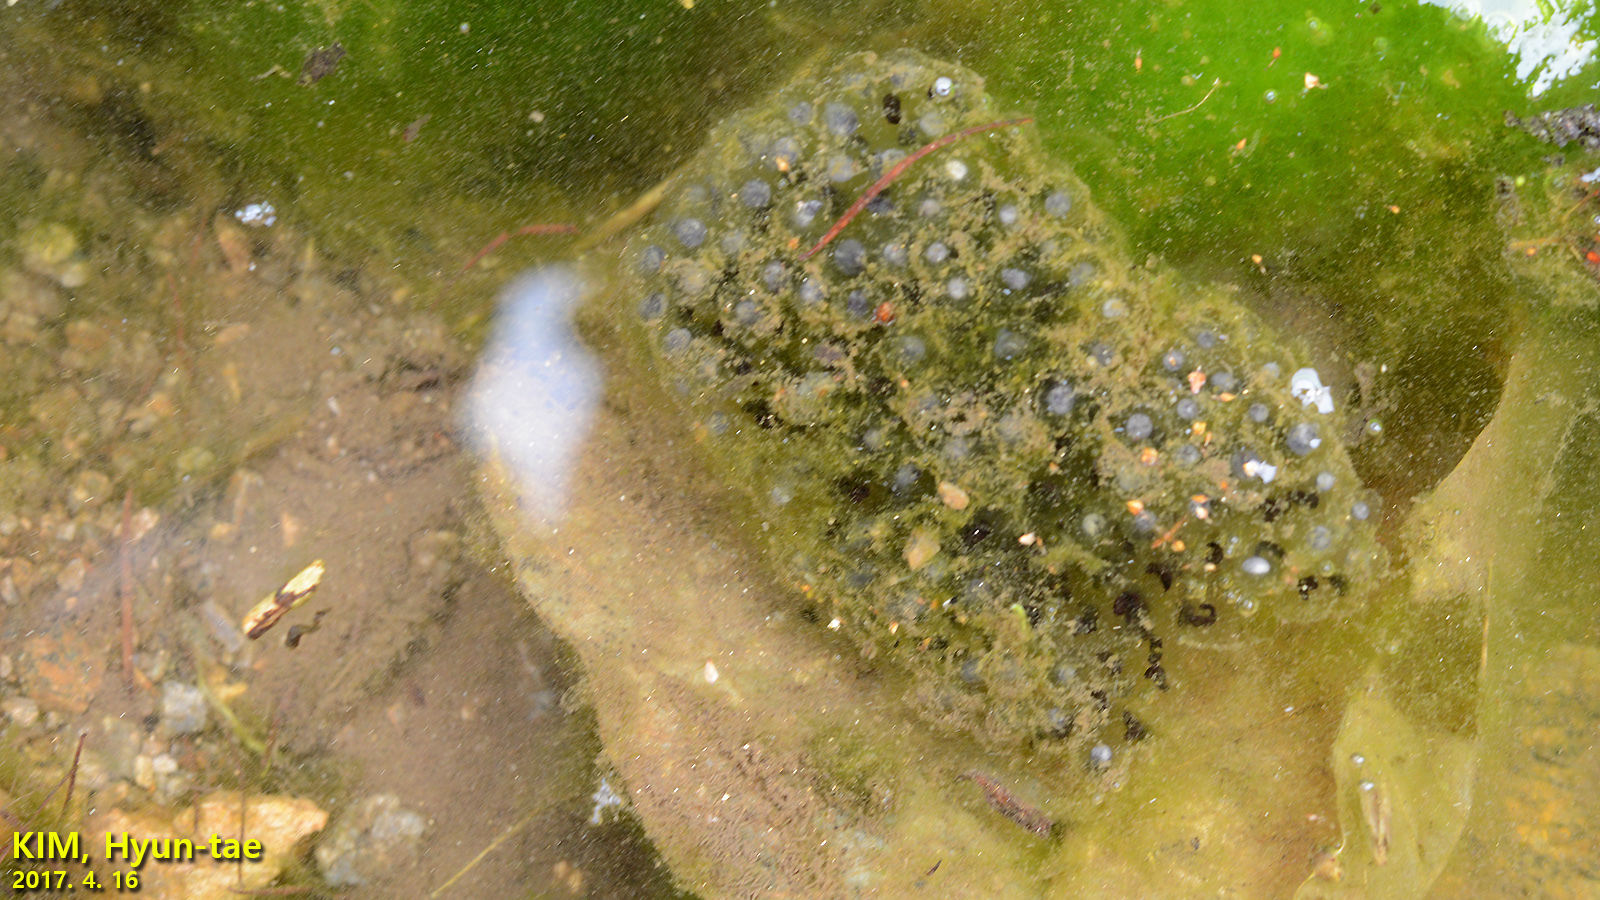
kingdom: Animalia
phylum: Chordata
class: Amphibia
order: Anura
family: Ranidae
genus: Rana
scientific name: Rana coreana
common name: Korean brown frog
